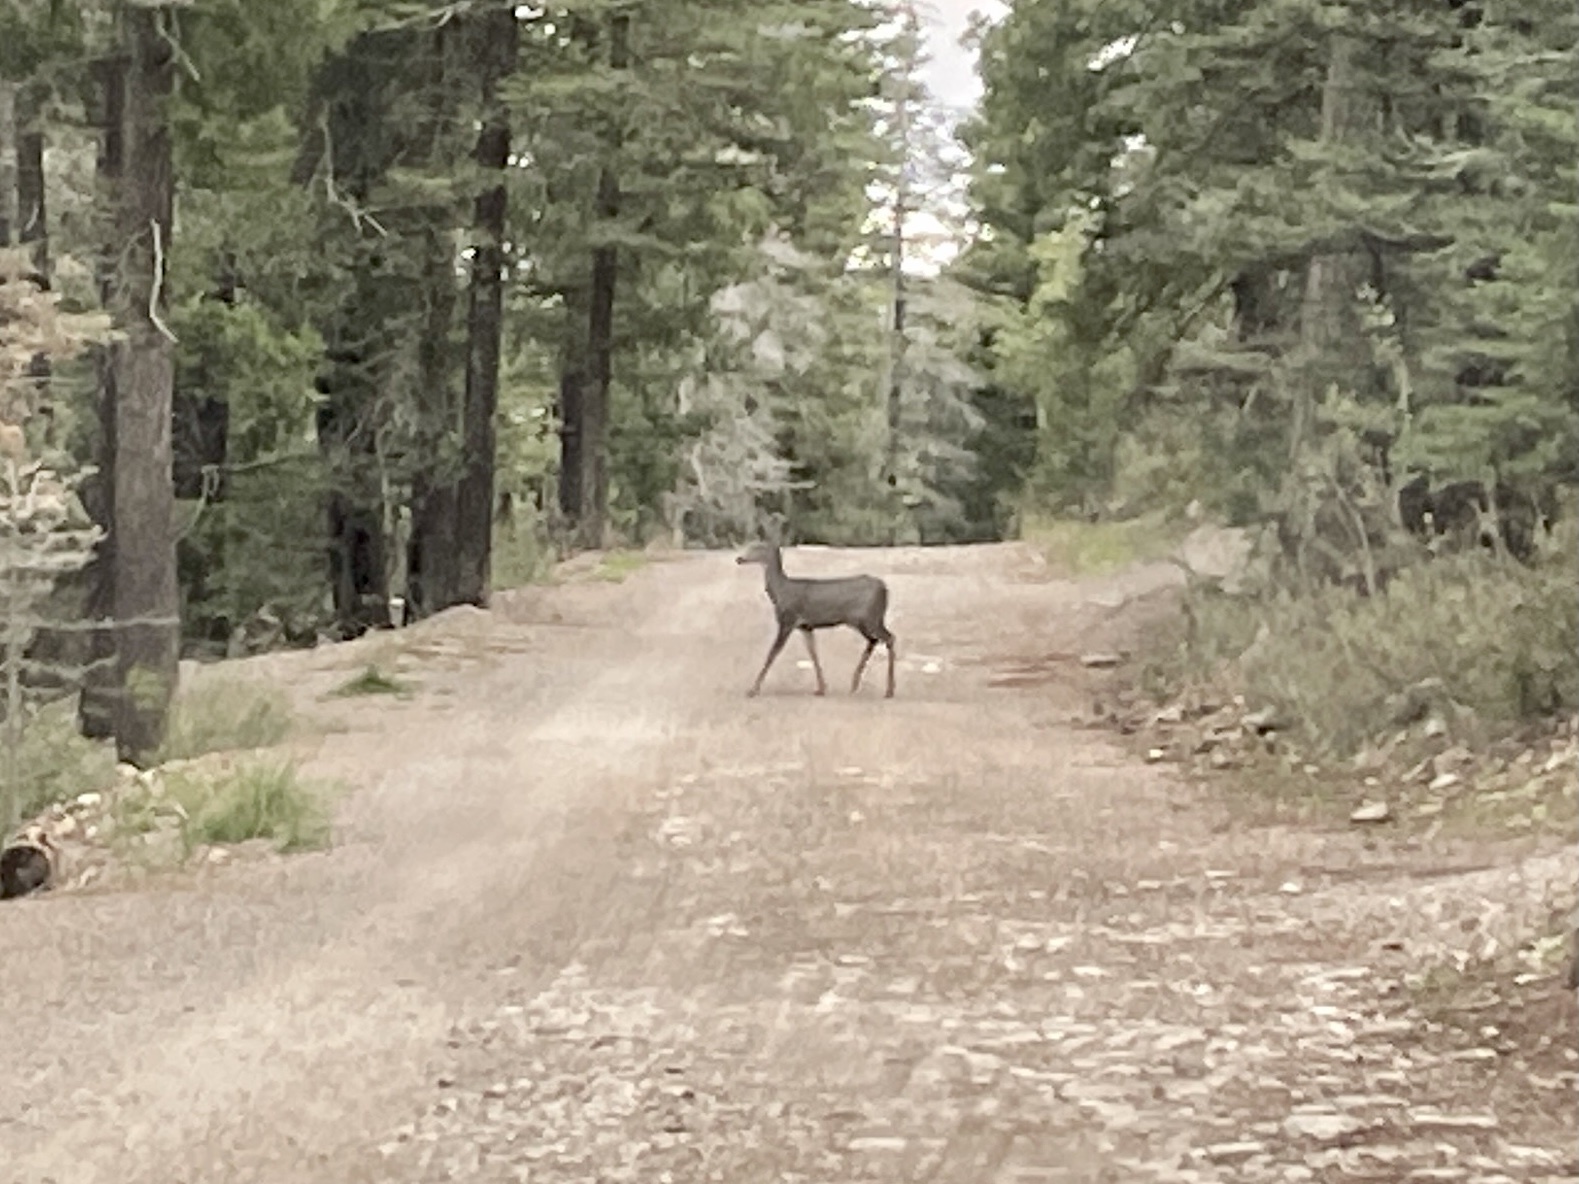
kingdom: Animalia
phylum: Chordata
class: Mammalia
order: Artiodactyla
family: Cervidae
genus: Odocoileus
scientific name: Odocoileus hemionus
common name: Mule deer
